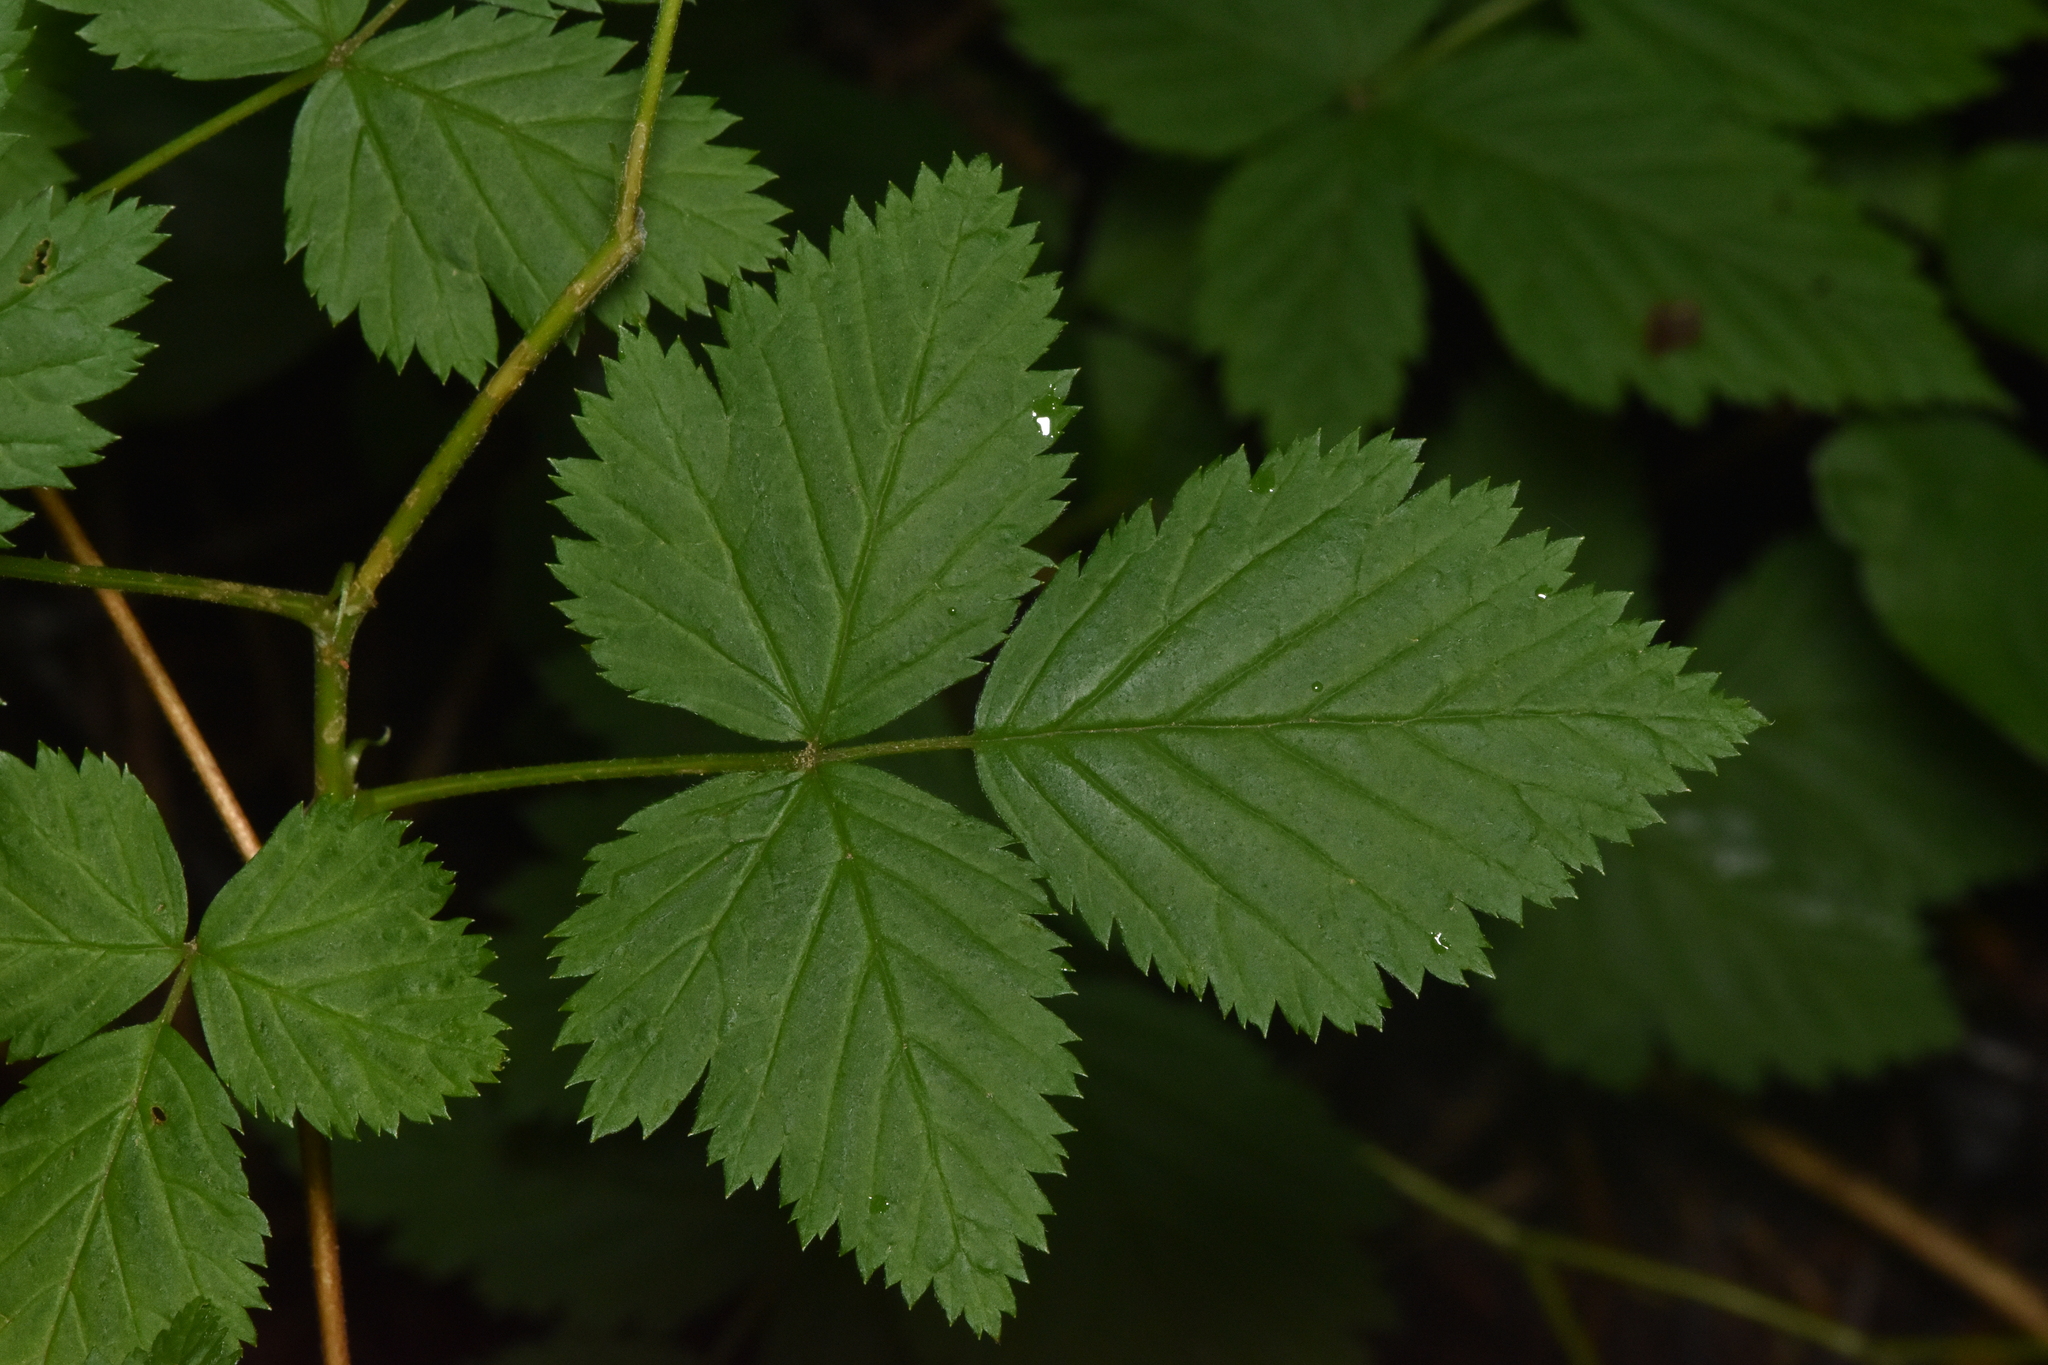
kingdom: Plantae
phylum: Tracheophyta
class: Magnoliopsida
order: Rosales
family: Rosaceae
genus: Rubus
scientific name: Rubus spectabilis
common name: Salmonberry
